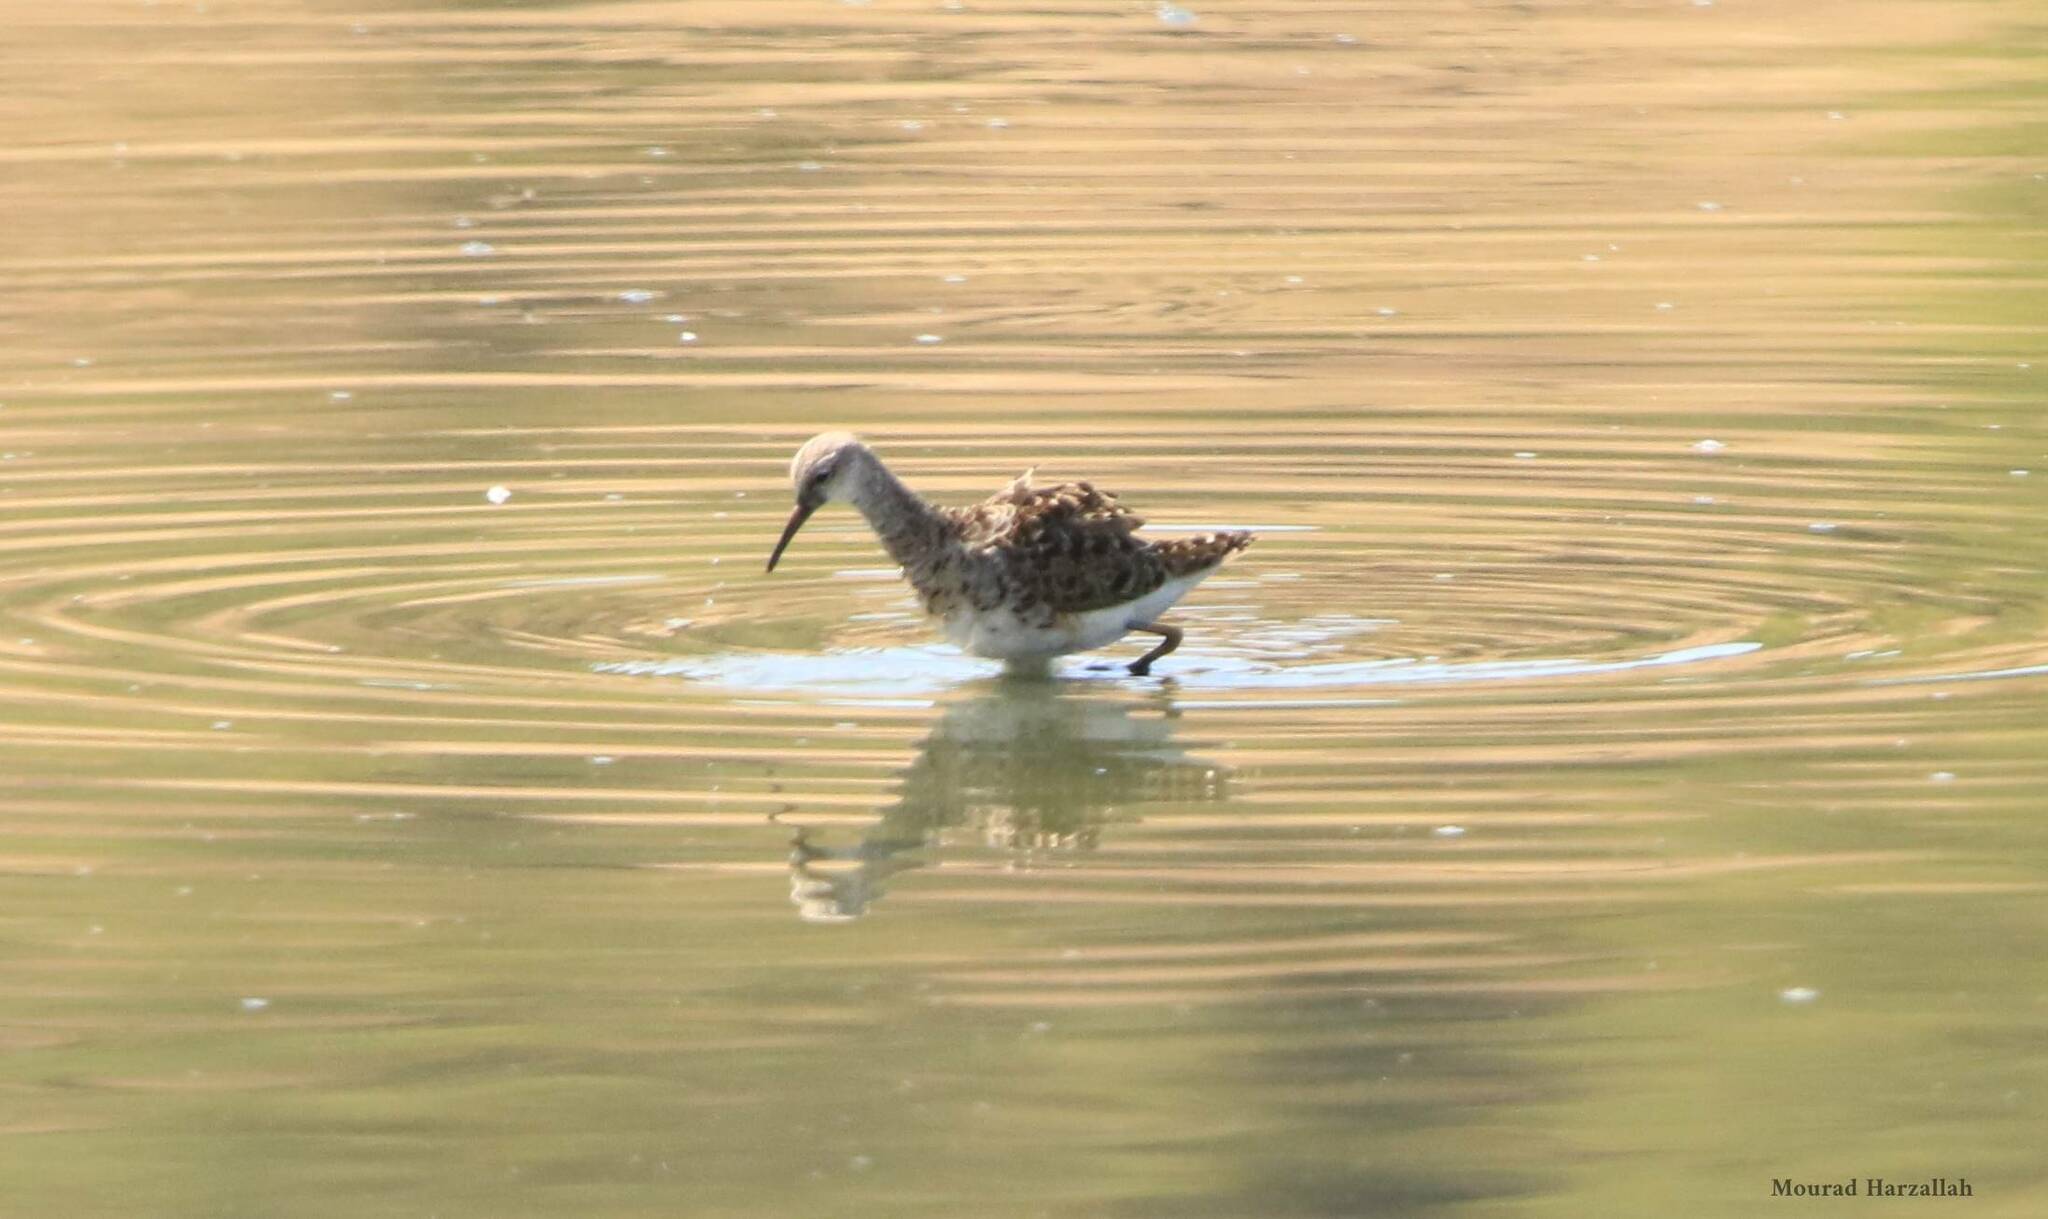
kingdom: Animalia
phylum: Chordata
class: Aves
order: Charadriiformes
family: Scolopacidae
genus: Calidris
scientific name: Calidris pugnax
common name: Ruff
